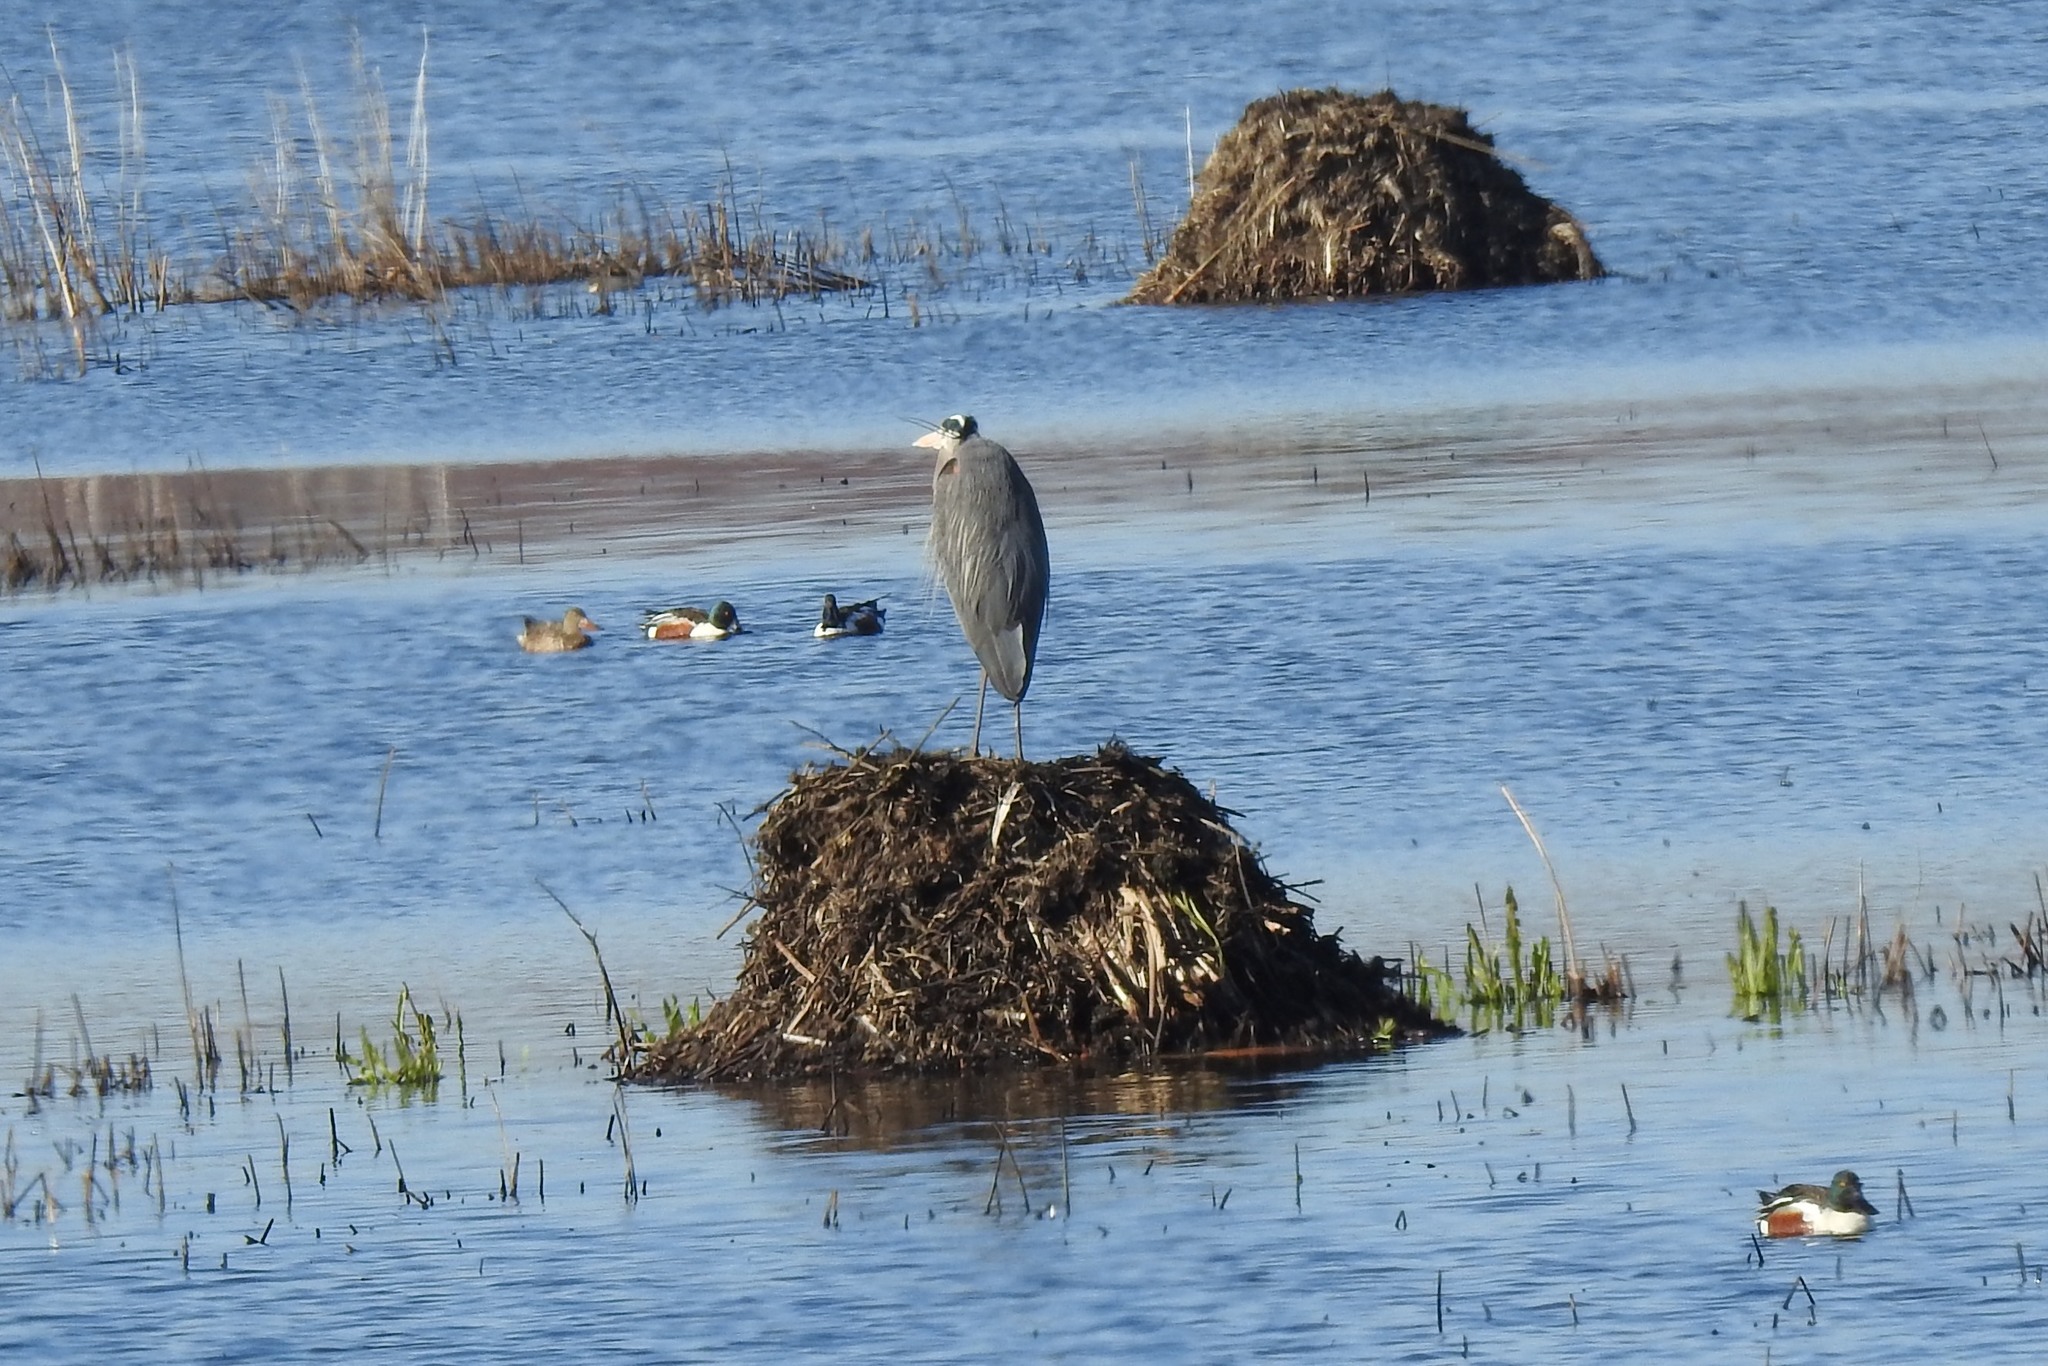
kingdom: Animalia
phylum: Chordata
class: Aves
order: Pelecaniformes
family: Ardeidae
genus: Ardea
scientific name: Ardea herodias
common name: Great blue heron
